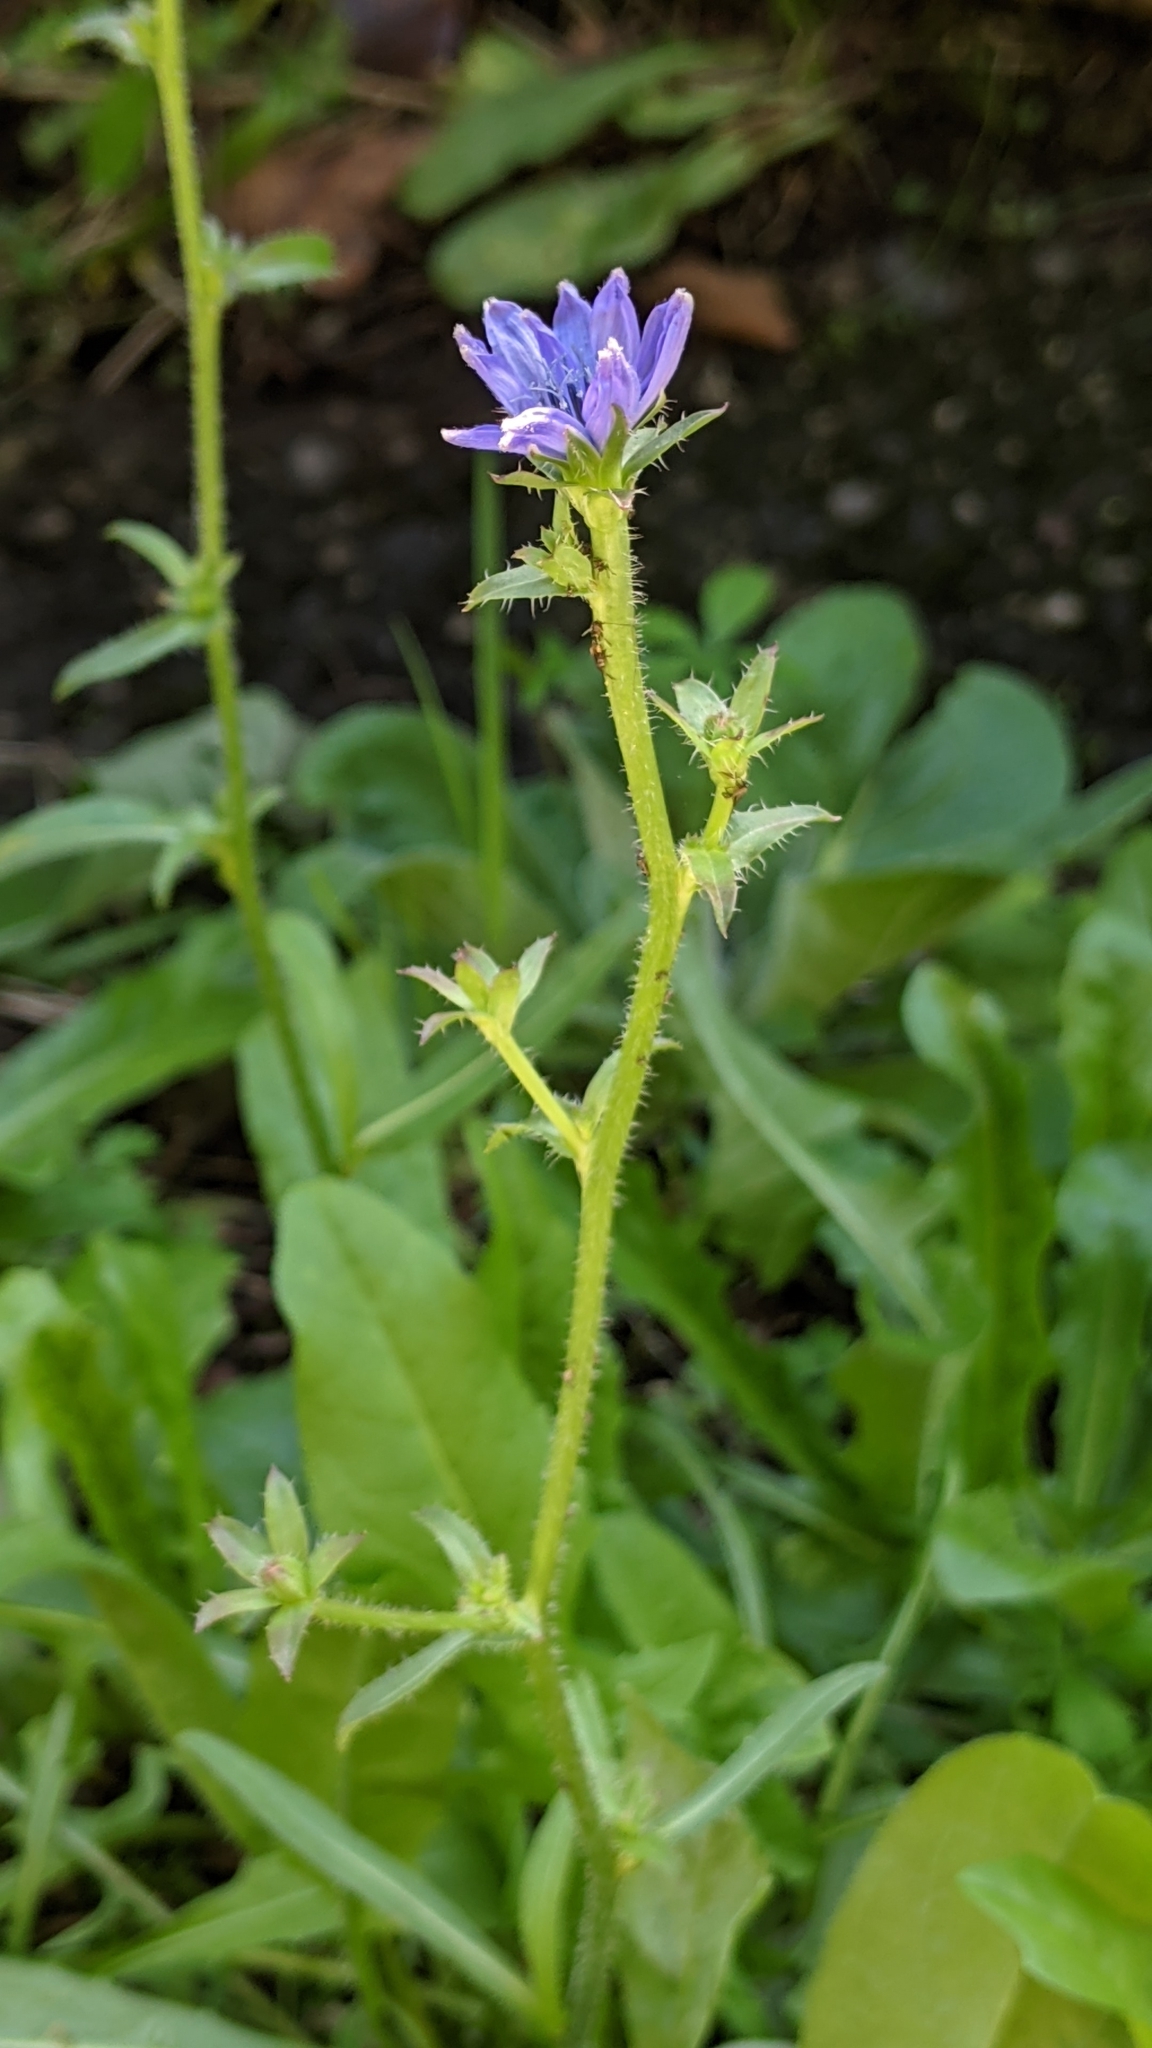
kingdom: Plantae
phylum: Tracheophyta
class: Magnoliopsida
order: Asterales
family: Asteraceae
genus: Cichorium
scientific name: Cichorium intybus
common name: Chicory
